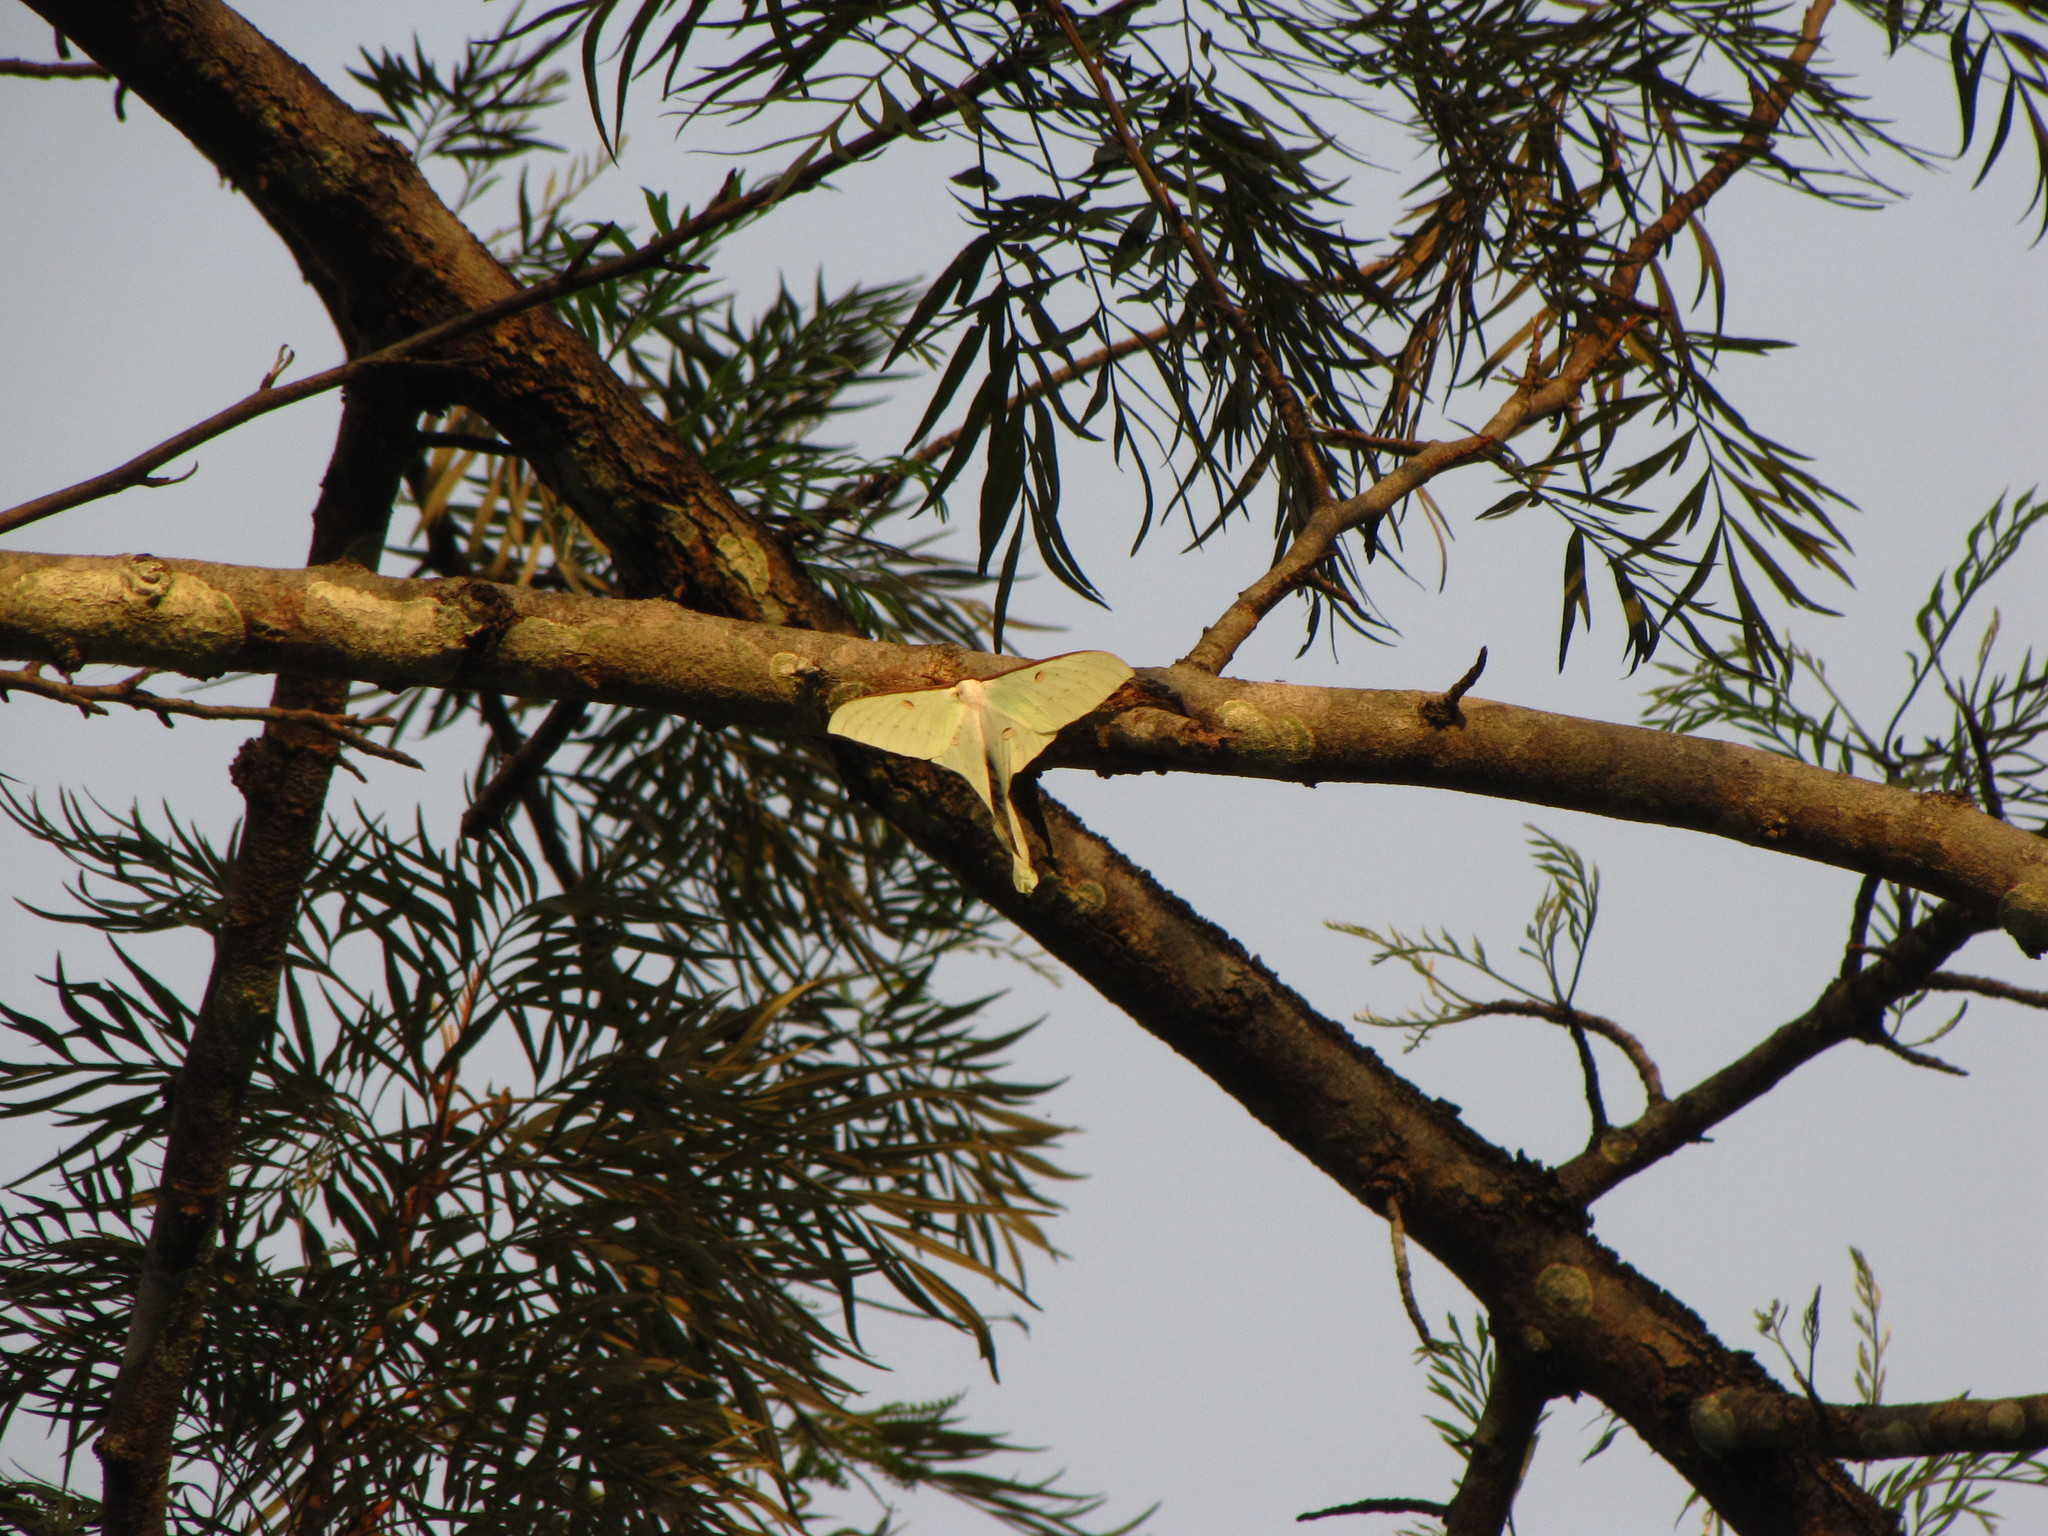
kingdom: Animalia
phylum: Arthropoda
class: Insecta
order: Lepidoptera
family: Saturniidae
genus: Actias
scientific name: Actias selene
